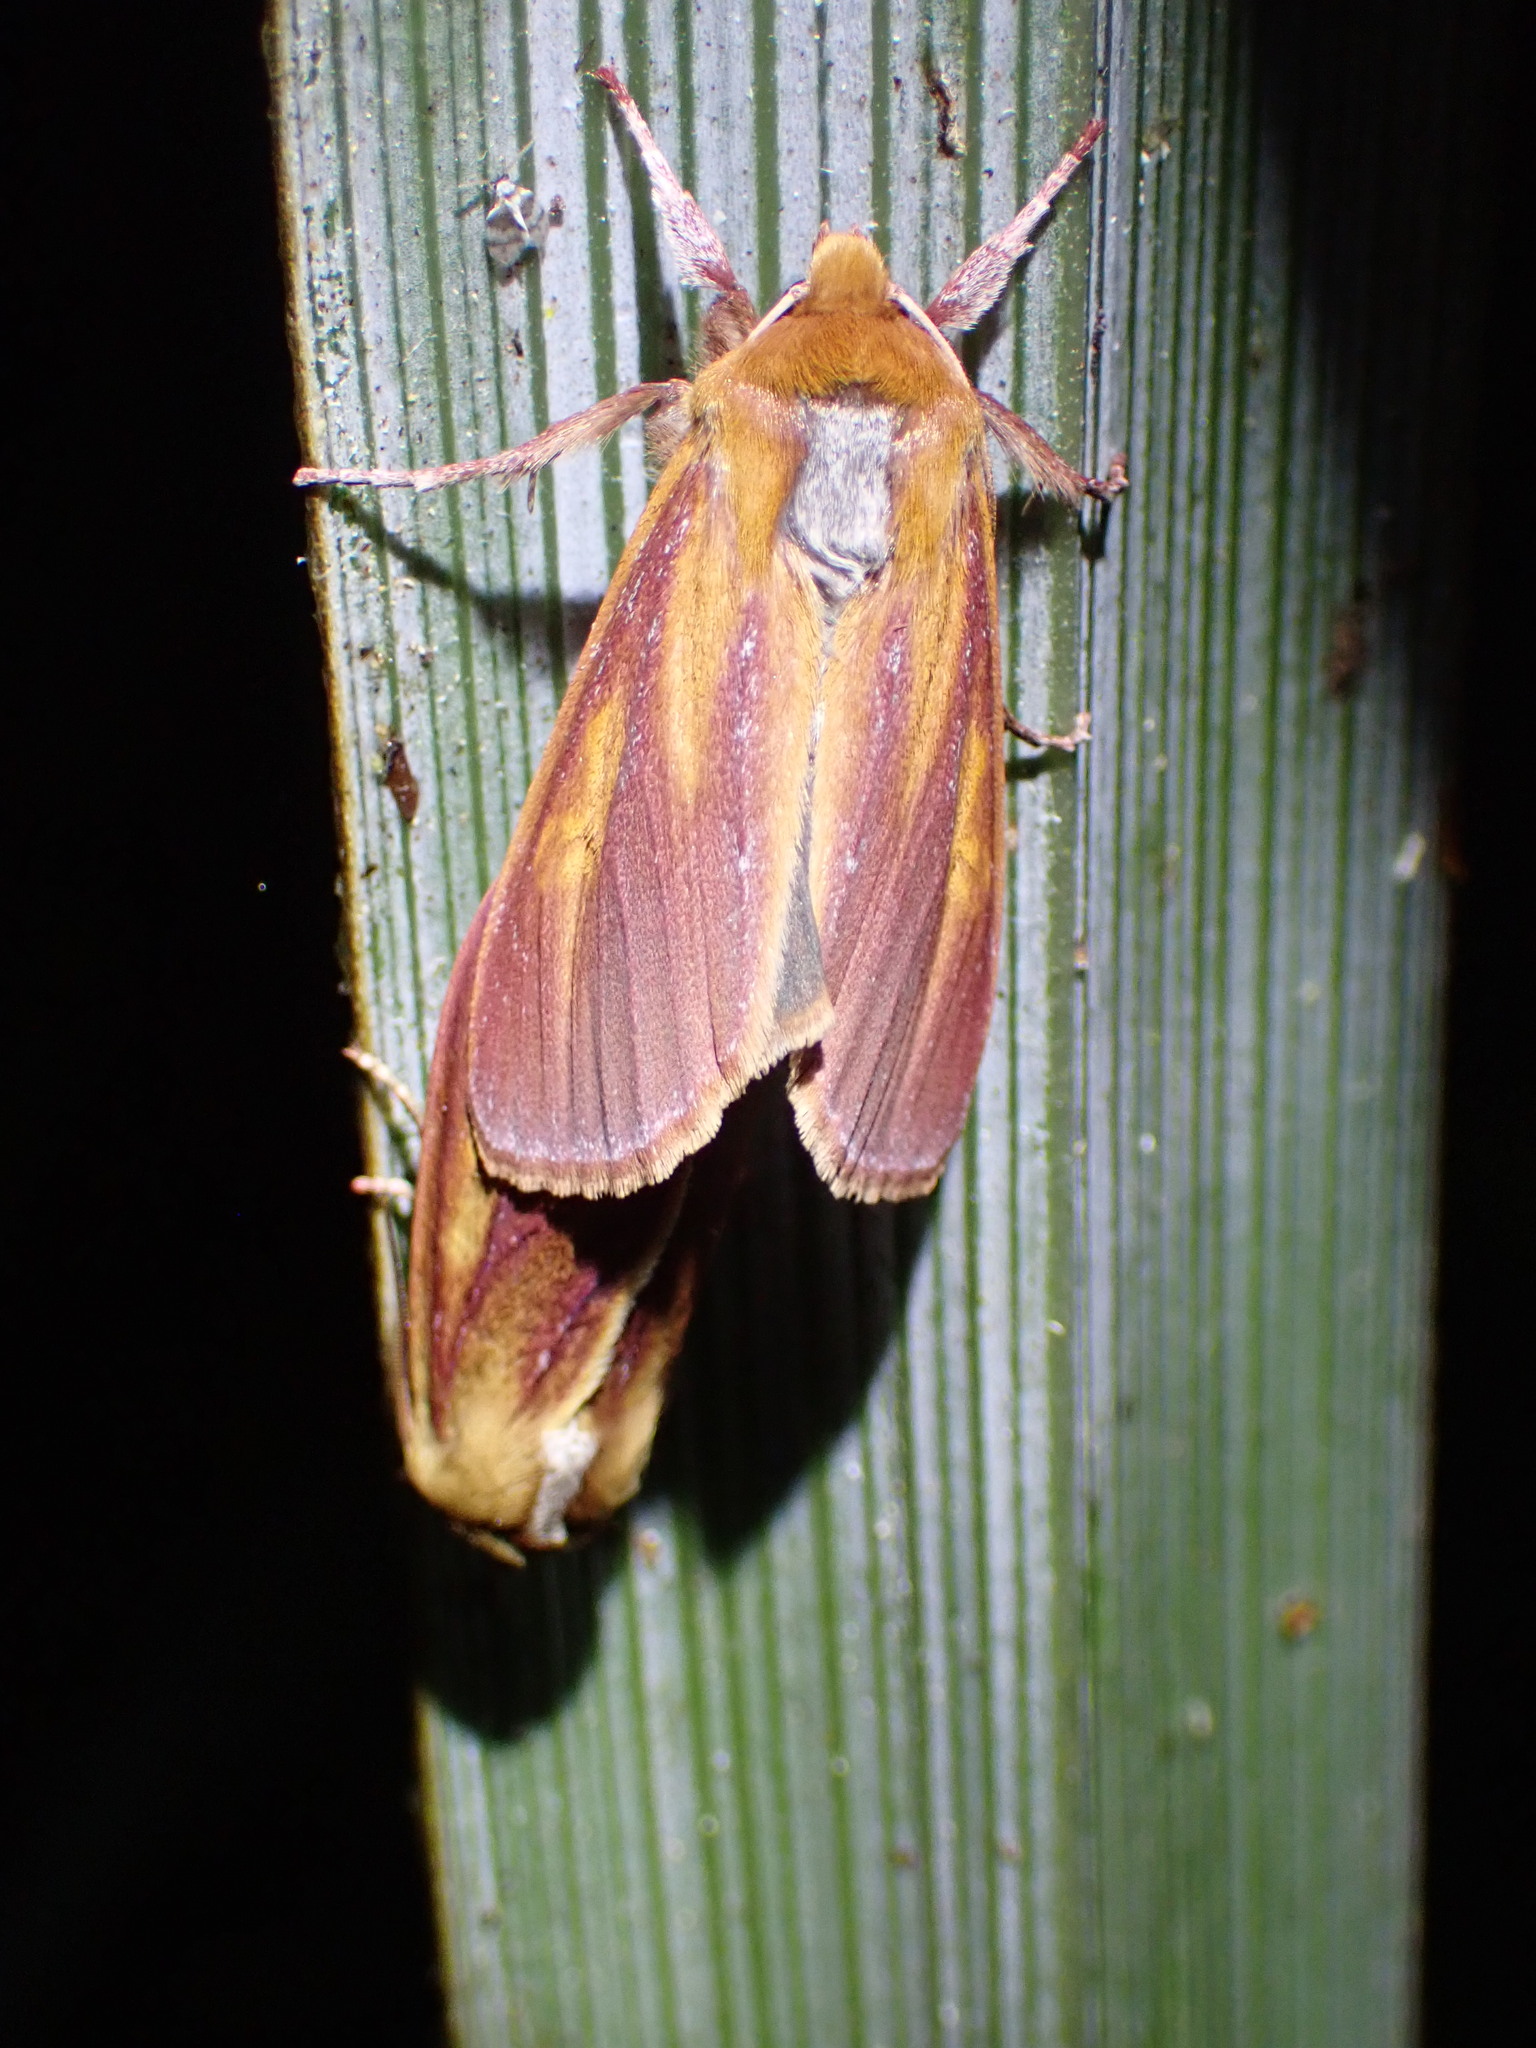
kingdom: Animalia
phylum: Arthropoda
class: Insecta
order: Lepidoptera
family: Noctuidae
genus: Ichneutica
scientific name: Ichneutica
